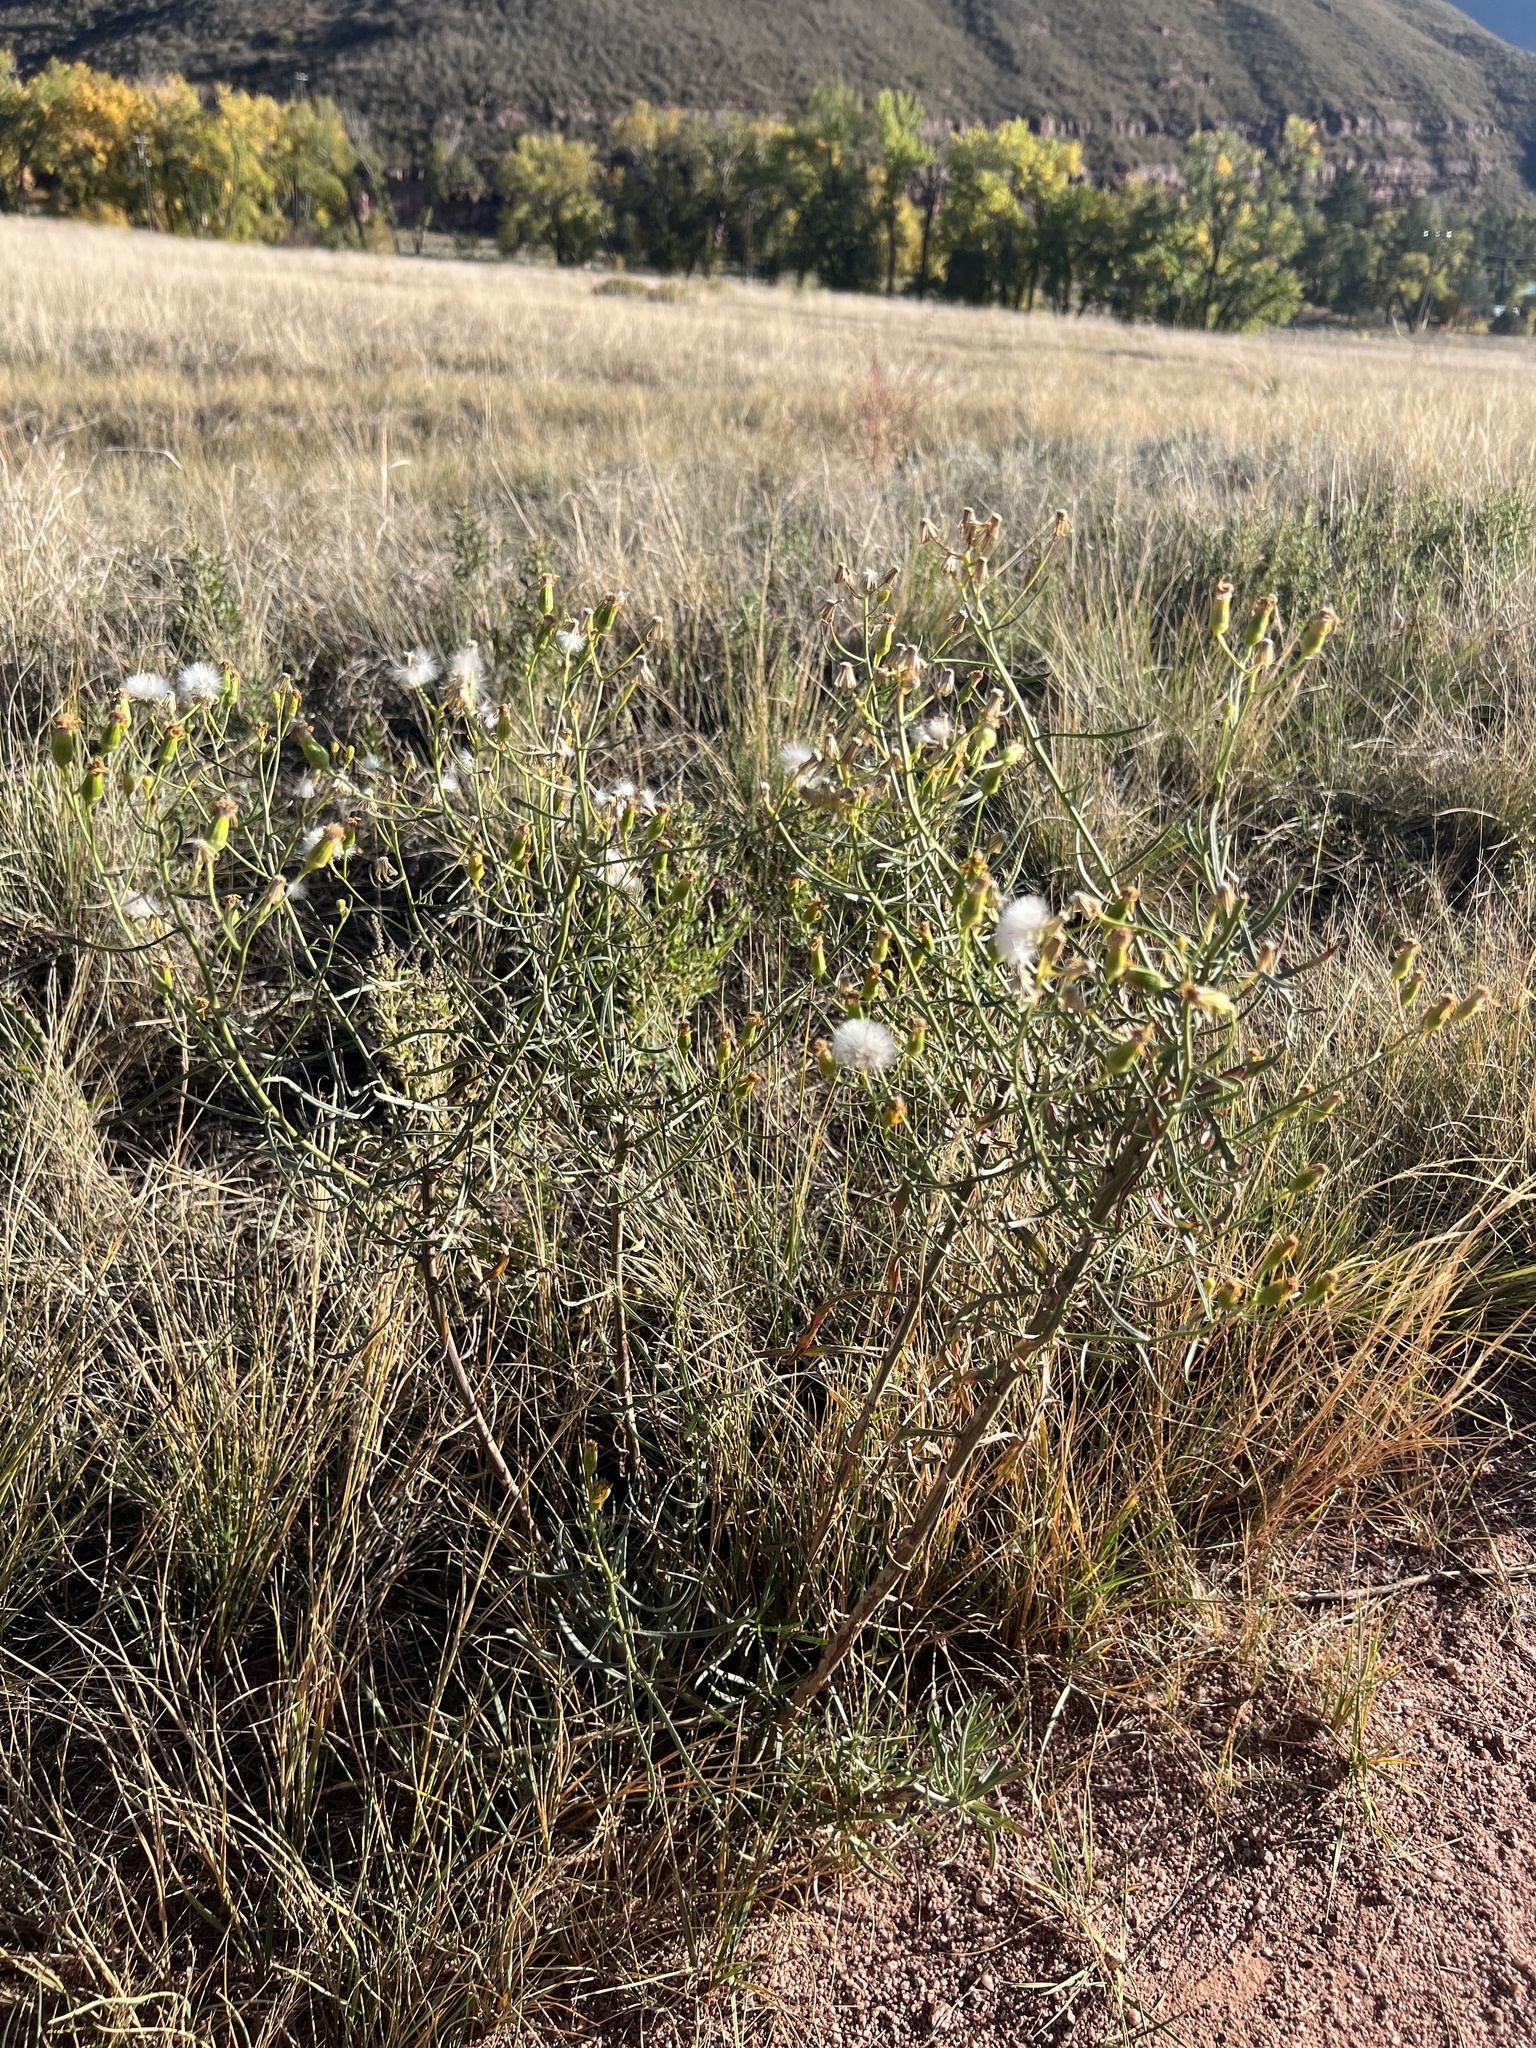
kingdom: Plantae
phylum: Tracheophyta
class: Magnoliopsida
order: Asterales
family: Asteraceae
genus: Senecio
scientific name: Senecio spartioides
